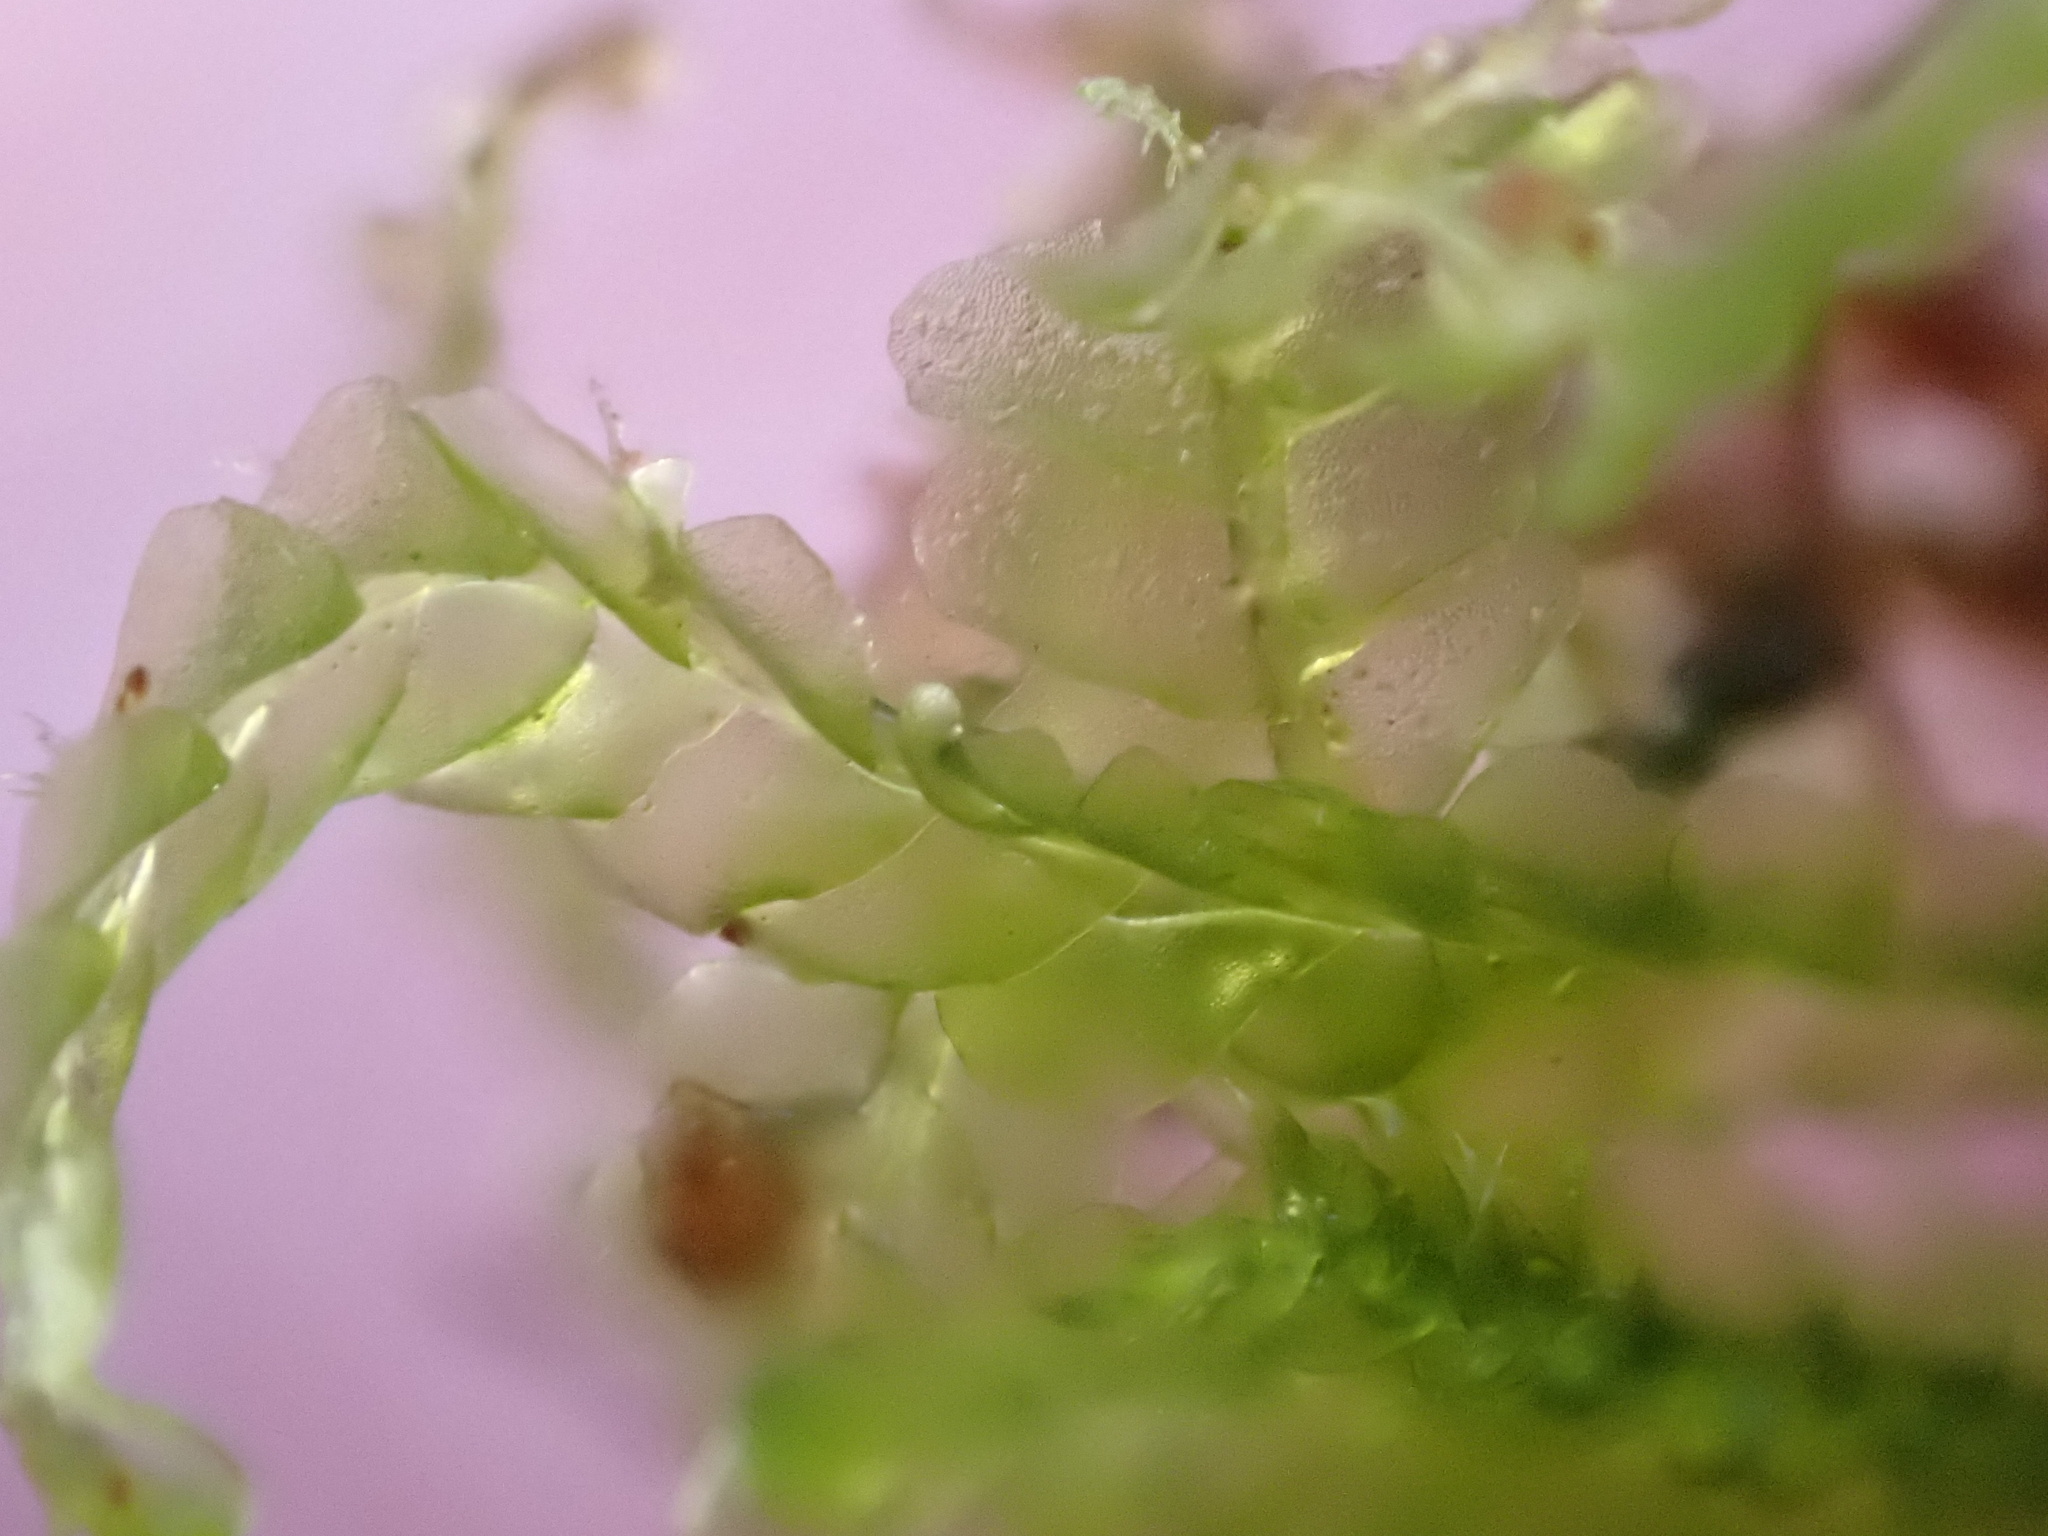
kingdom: Plantae
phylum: Marchantiophyta
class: Jungermanniopsida
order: Jungermanniales
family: Lophocoleaceae
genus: Lophocolea
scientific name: Lophocolea semiteres
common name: Southern crestwort
